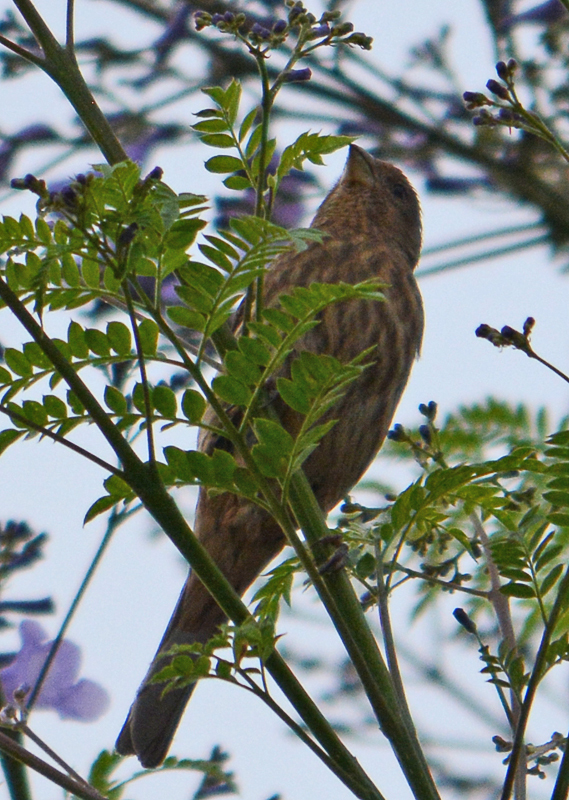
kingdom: Animalia
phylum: Chordata
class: Aves
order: Passeriformes
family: Fringillidae
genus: Haemorhous
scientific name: Haemorhous mexicanus
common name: House finch
